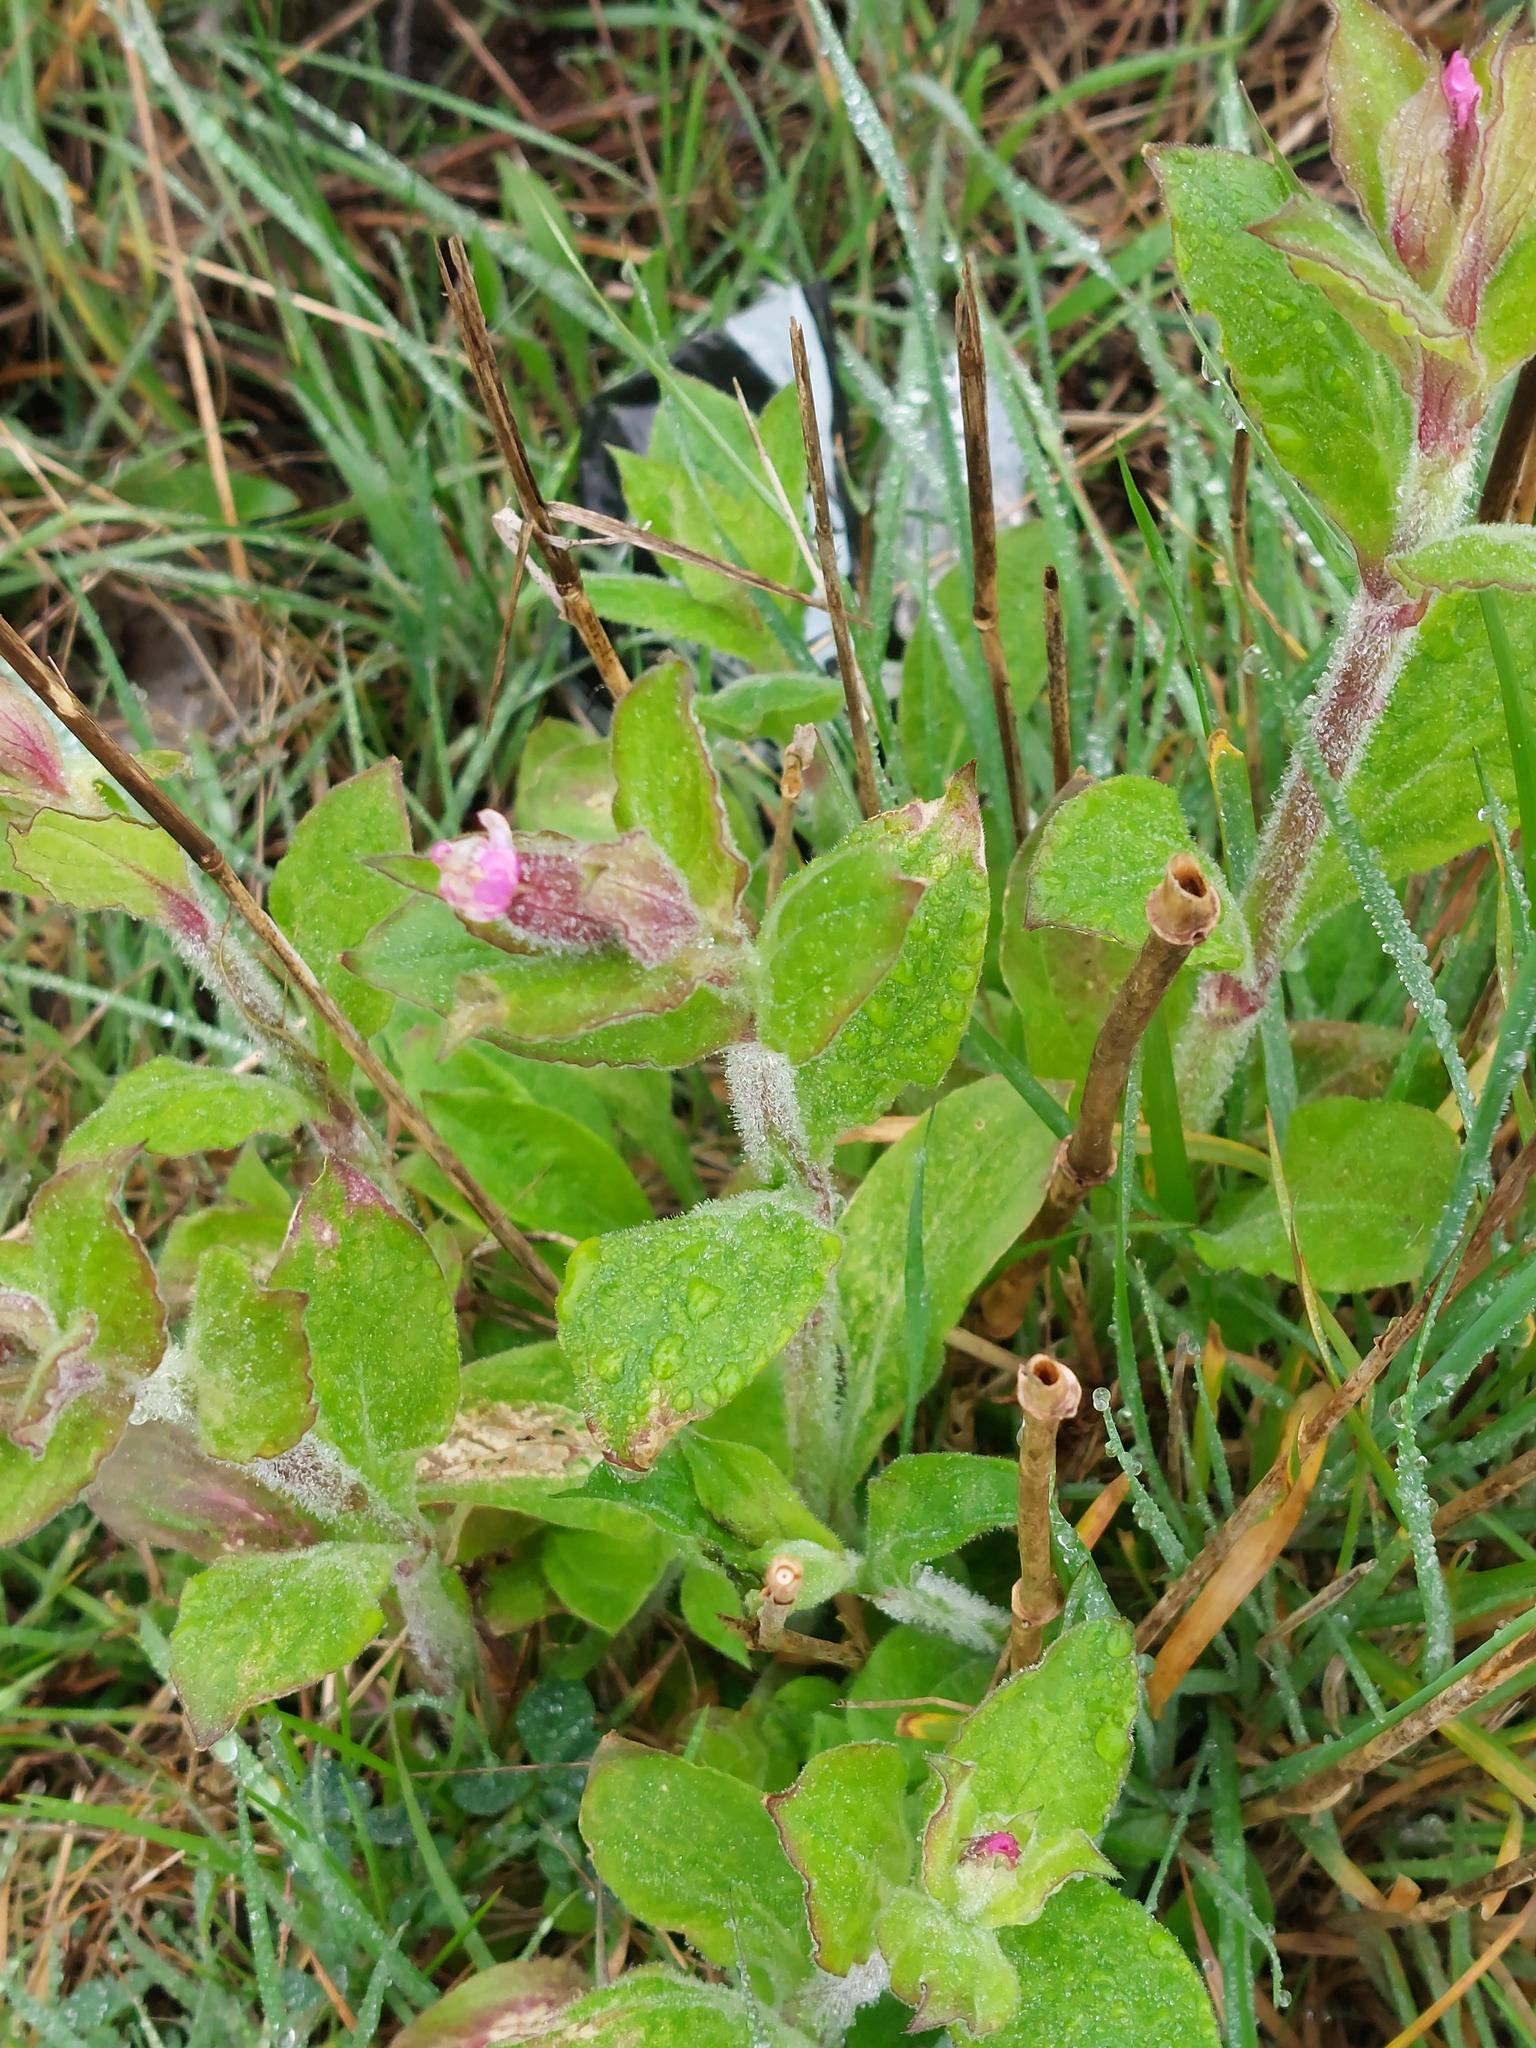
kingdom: Plantae
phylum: Tracheophyta
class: Magnoliopsida
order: Caryophyllales
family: Caryophyllaceae
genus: Silene
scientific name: Silene dioica
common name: Red campion
